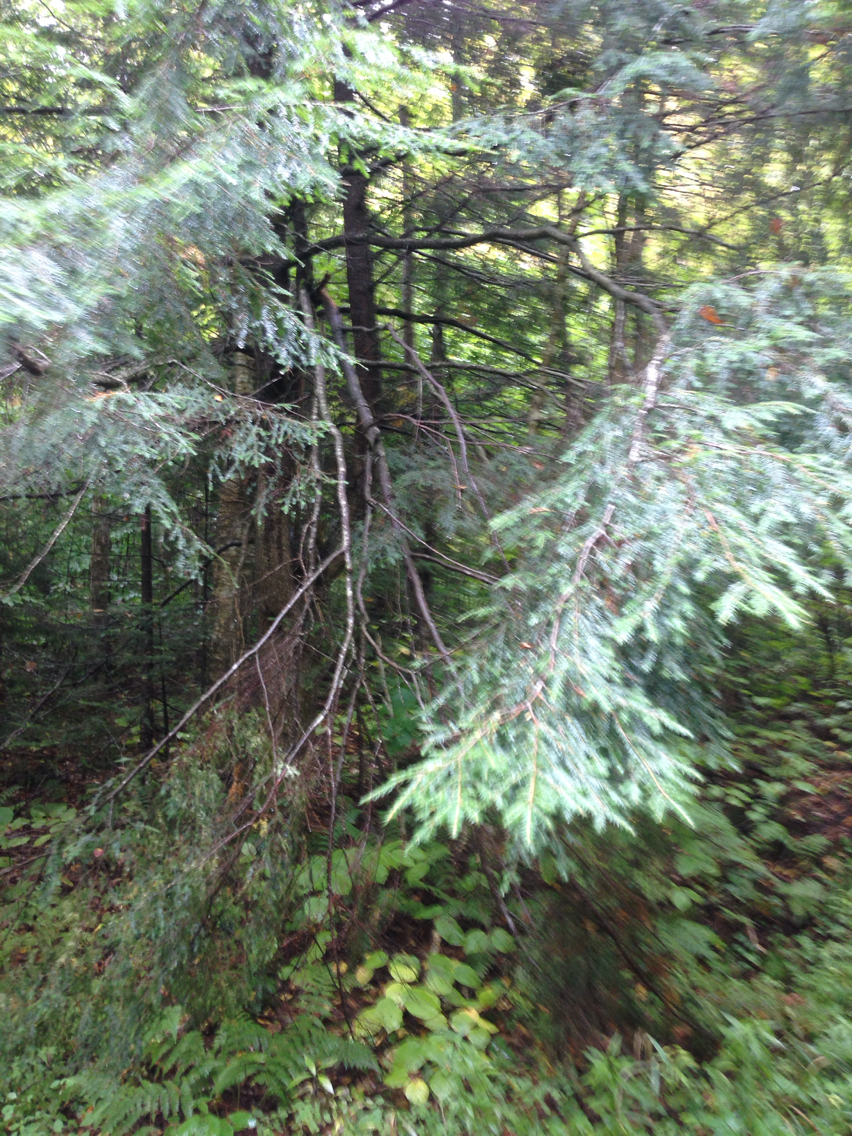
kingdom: Plantae
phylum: Tracheophyta
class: Pinopsida
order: Pinales
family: Pinaceae
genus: Tsuga
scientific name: Tsuga canadensis
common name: Eastern hemlock
